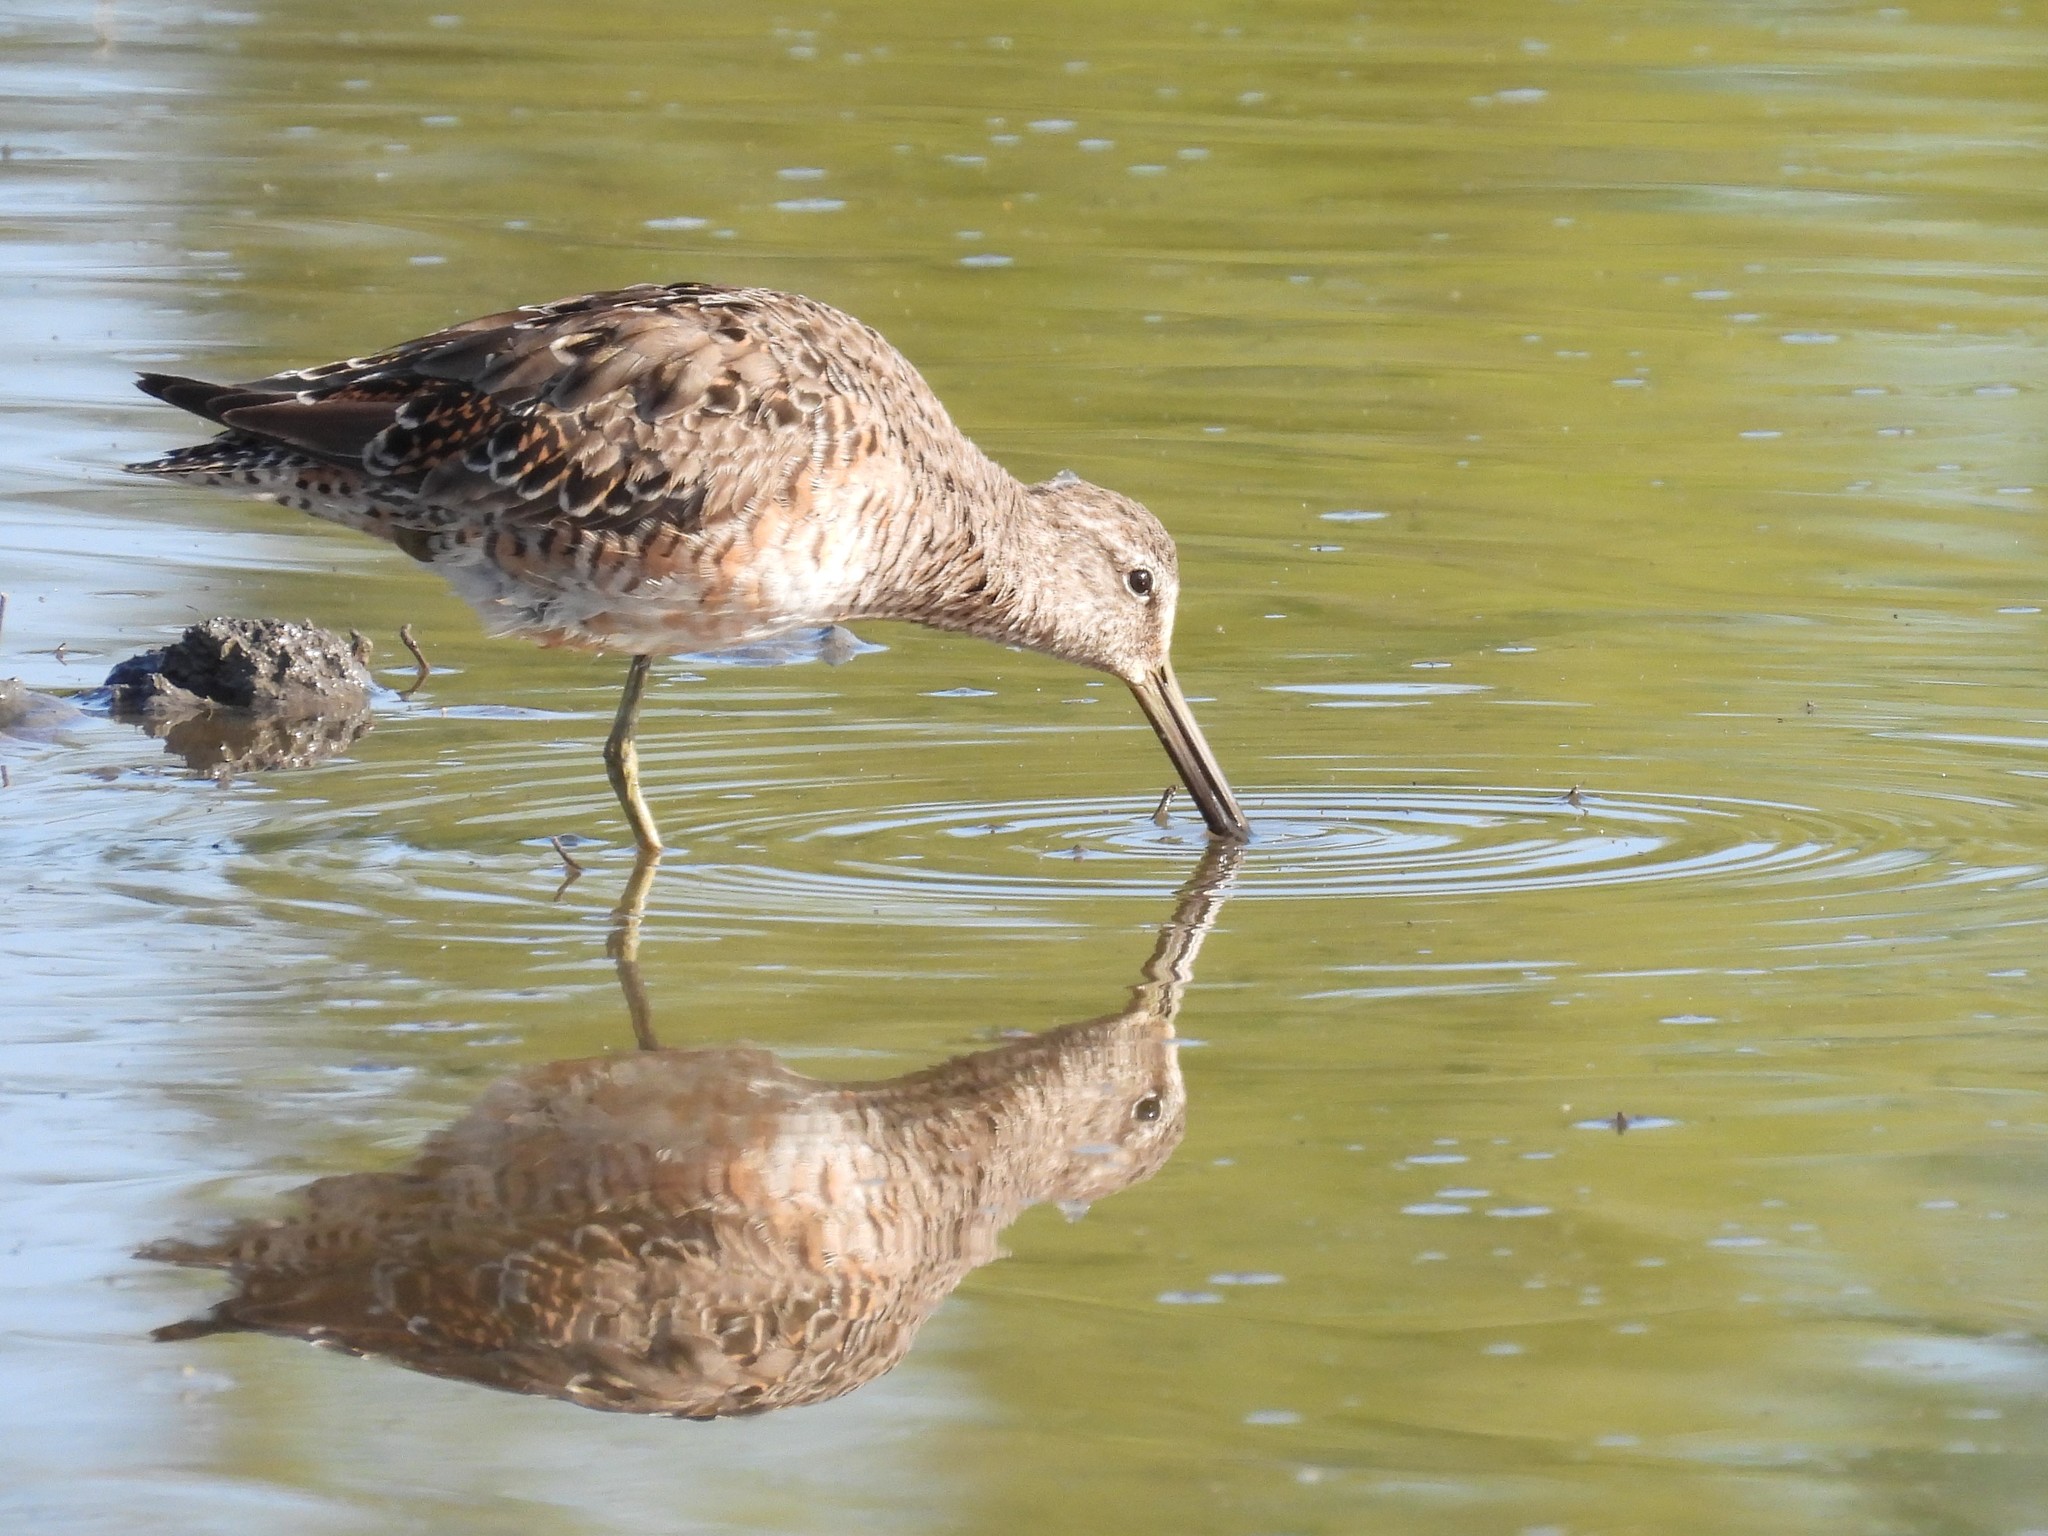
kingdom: Animalia
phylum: Chordata
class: Aves
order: Charadriiformes
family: Scolopacidae
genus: Limnodromus
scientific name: Limnodromus scolopaceus
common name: Long-billed dowitcher
